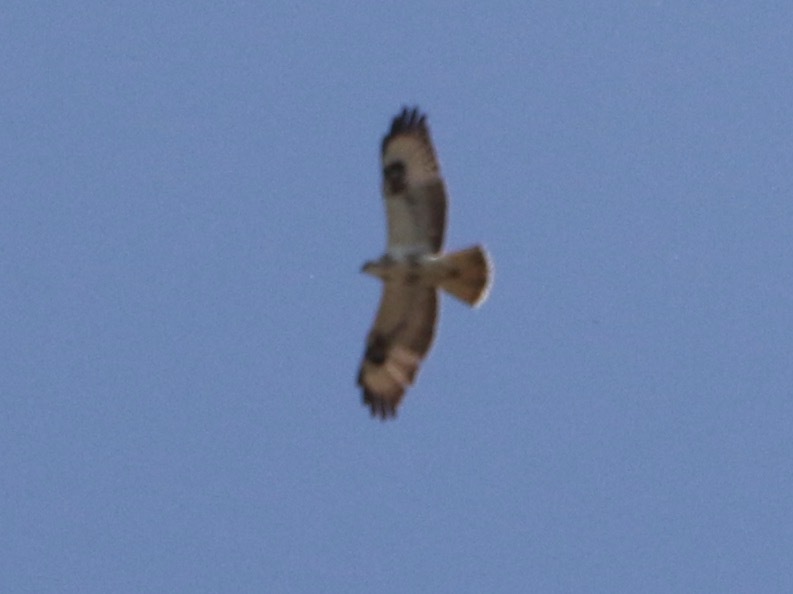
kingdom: Animalia
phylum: Chordata
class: Aves
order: Accipitriformes
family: Accipitridae
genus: Buteo
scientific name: Buteo buteo
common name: Common buzzard
